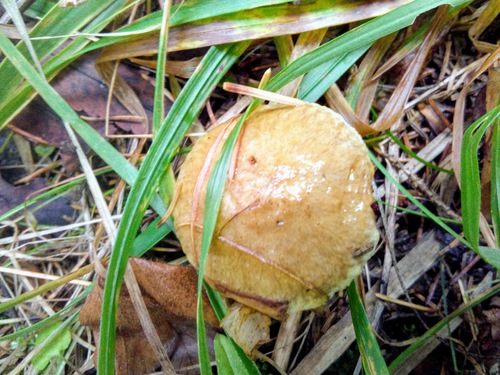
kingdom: Fungi
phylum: Basidiomycota
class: Agaricomycetes
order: Boletales
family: Suillaceae
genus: Suillus
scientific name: Suillus americanus
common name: Chicken fat mushroom
